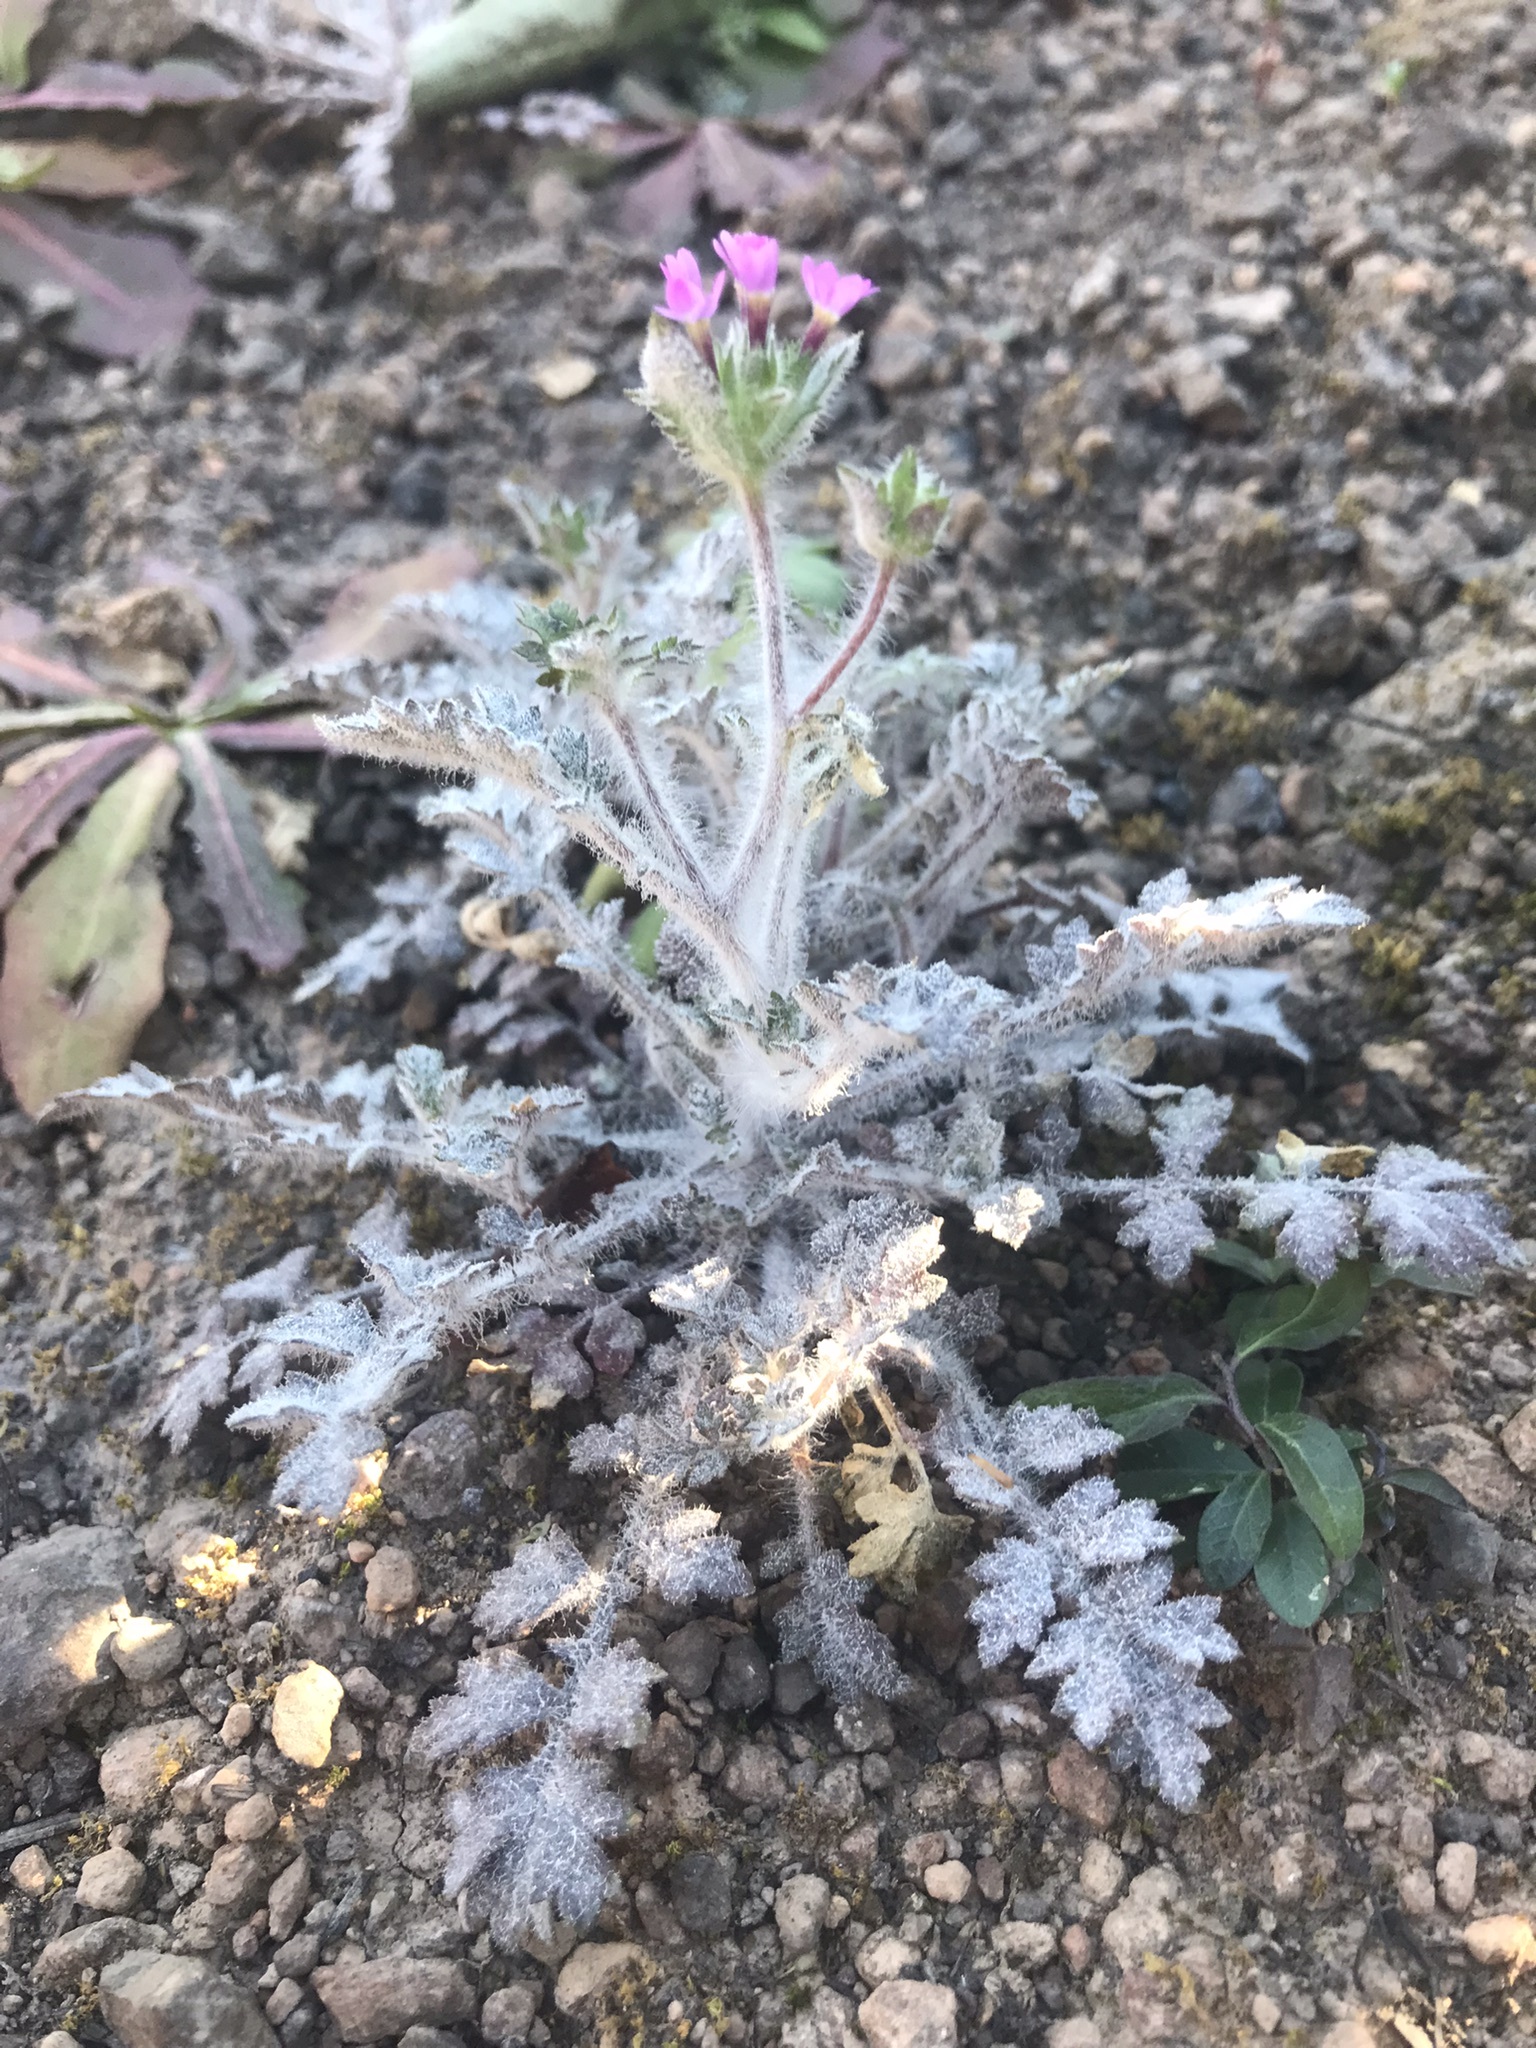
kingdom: Plantae
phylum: Tracheophyta
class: Magnoliopsida
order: Ericales
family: Polemoniaceae
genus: Collomia
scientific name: Collomia heterophylla
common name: Variable-leaved collomia
